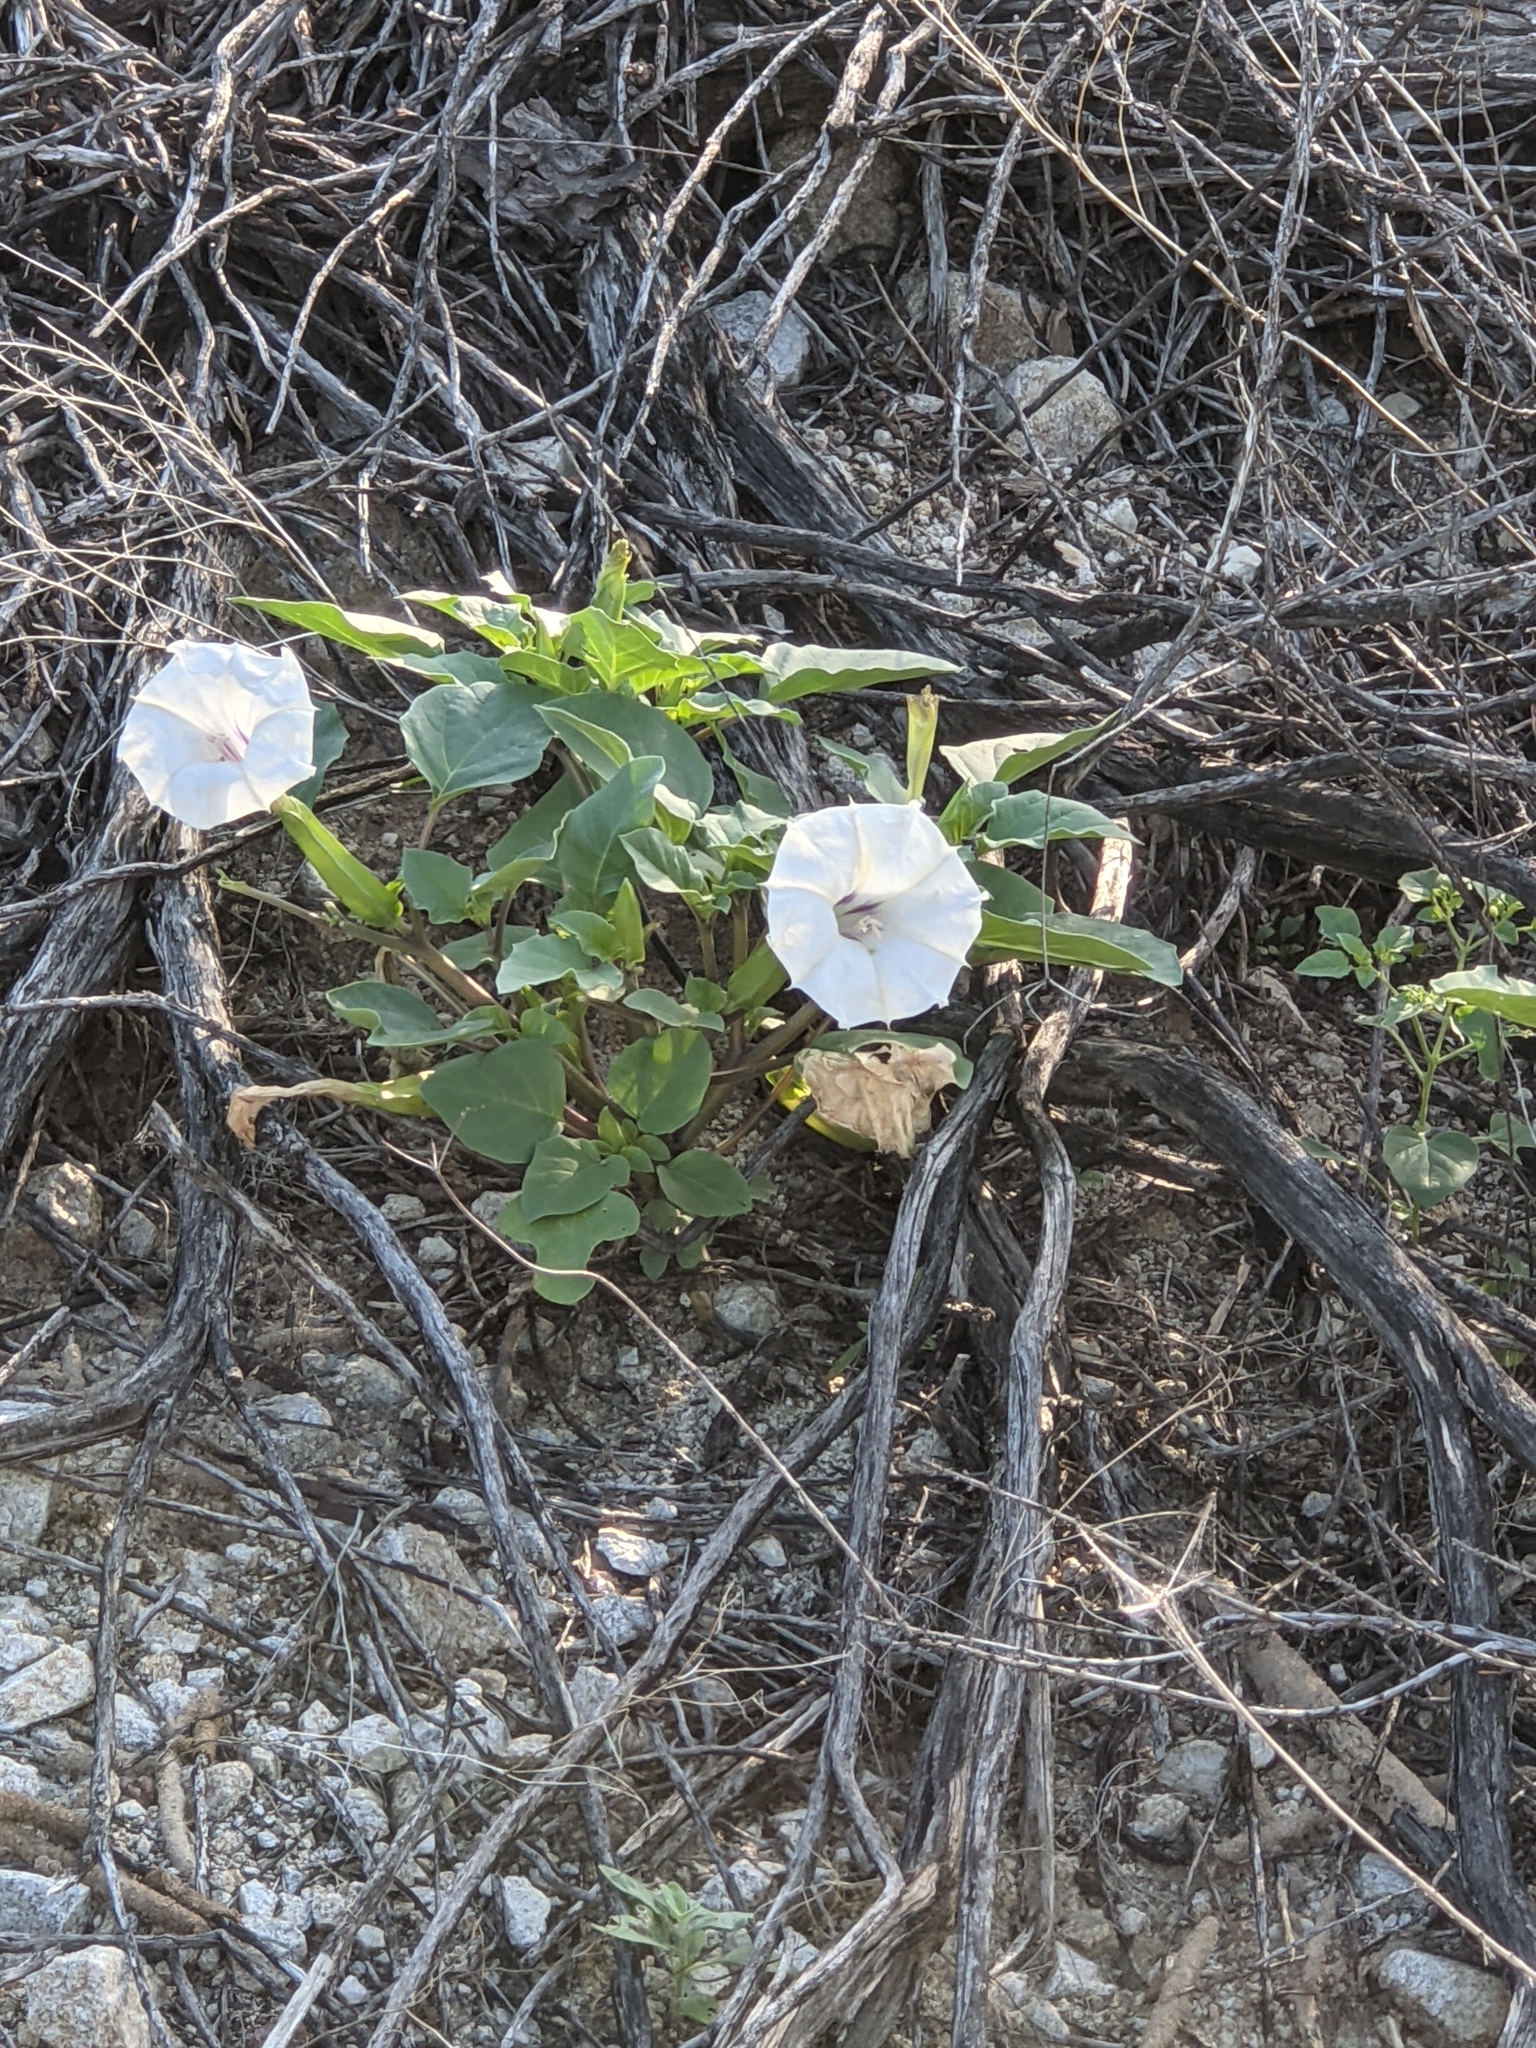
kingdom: Plantae
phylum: Tracheophyta
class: Magnoliopsida
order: Solanales
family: Solanaceae
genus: Datura
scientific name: Datura wrightii
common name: Sacred thorn-apple
